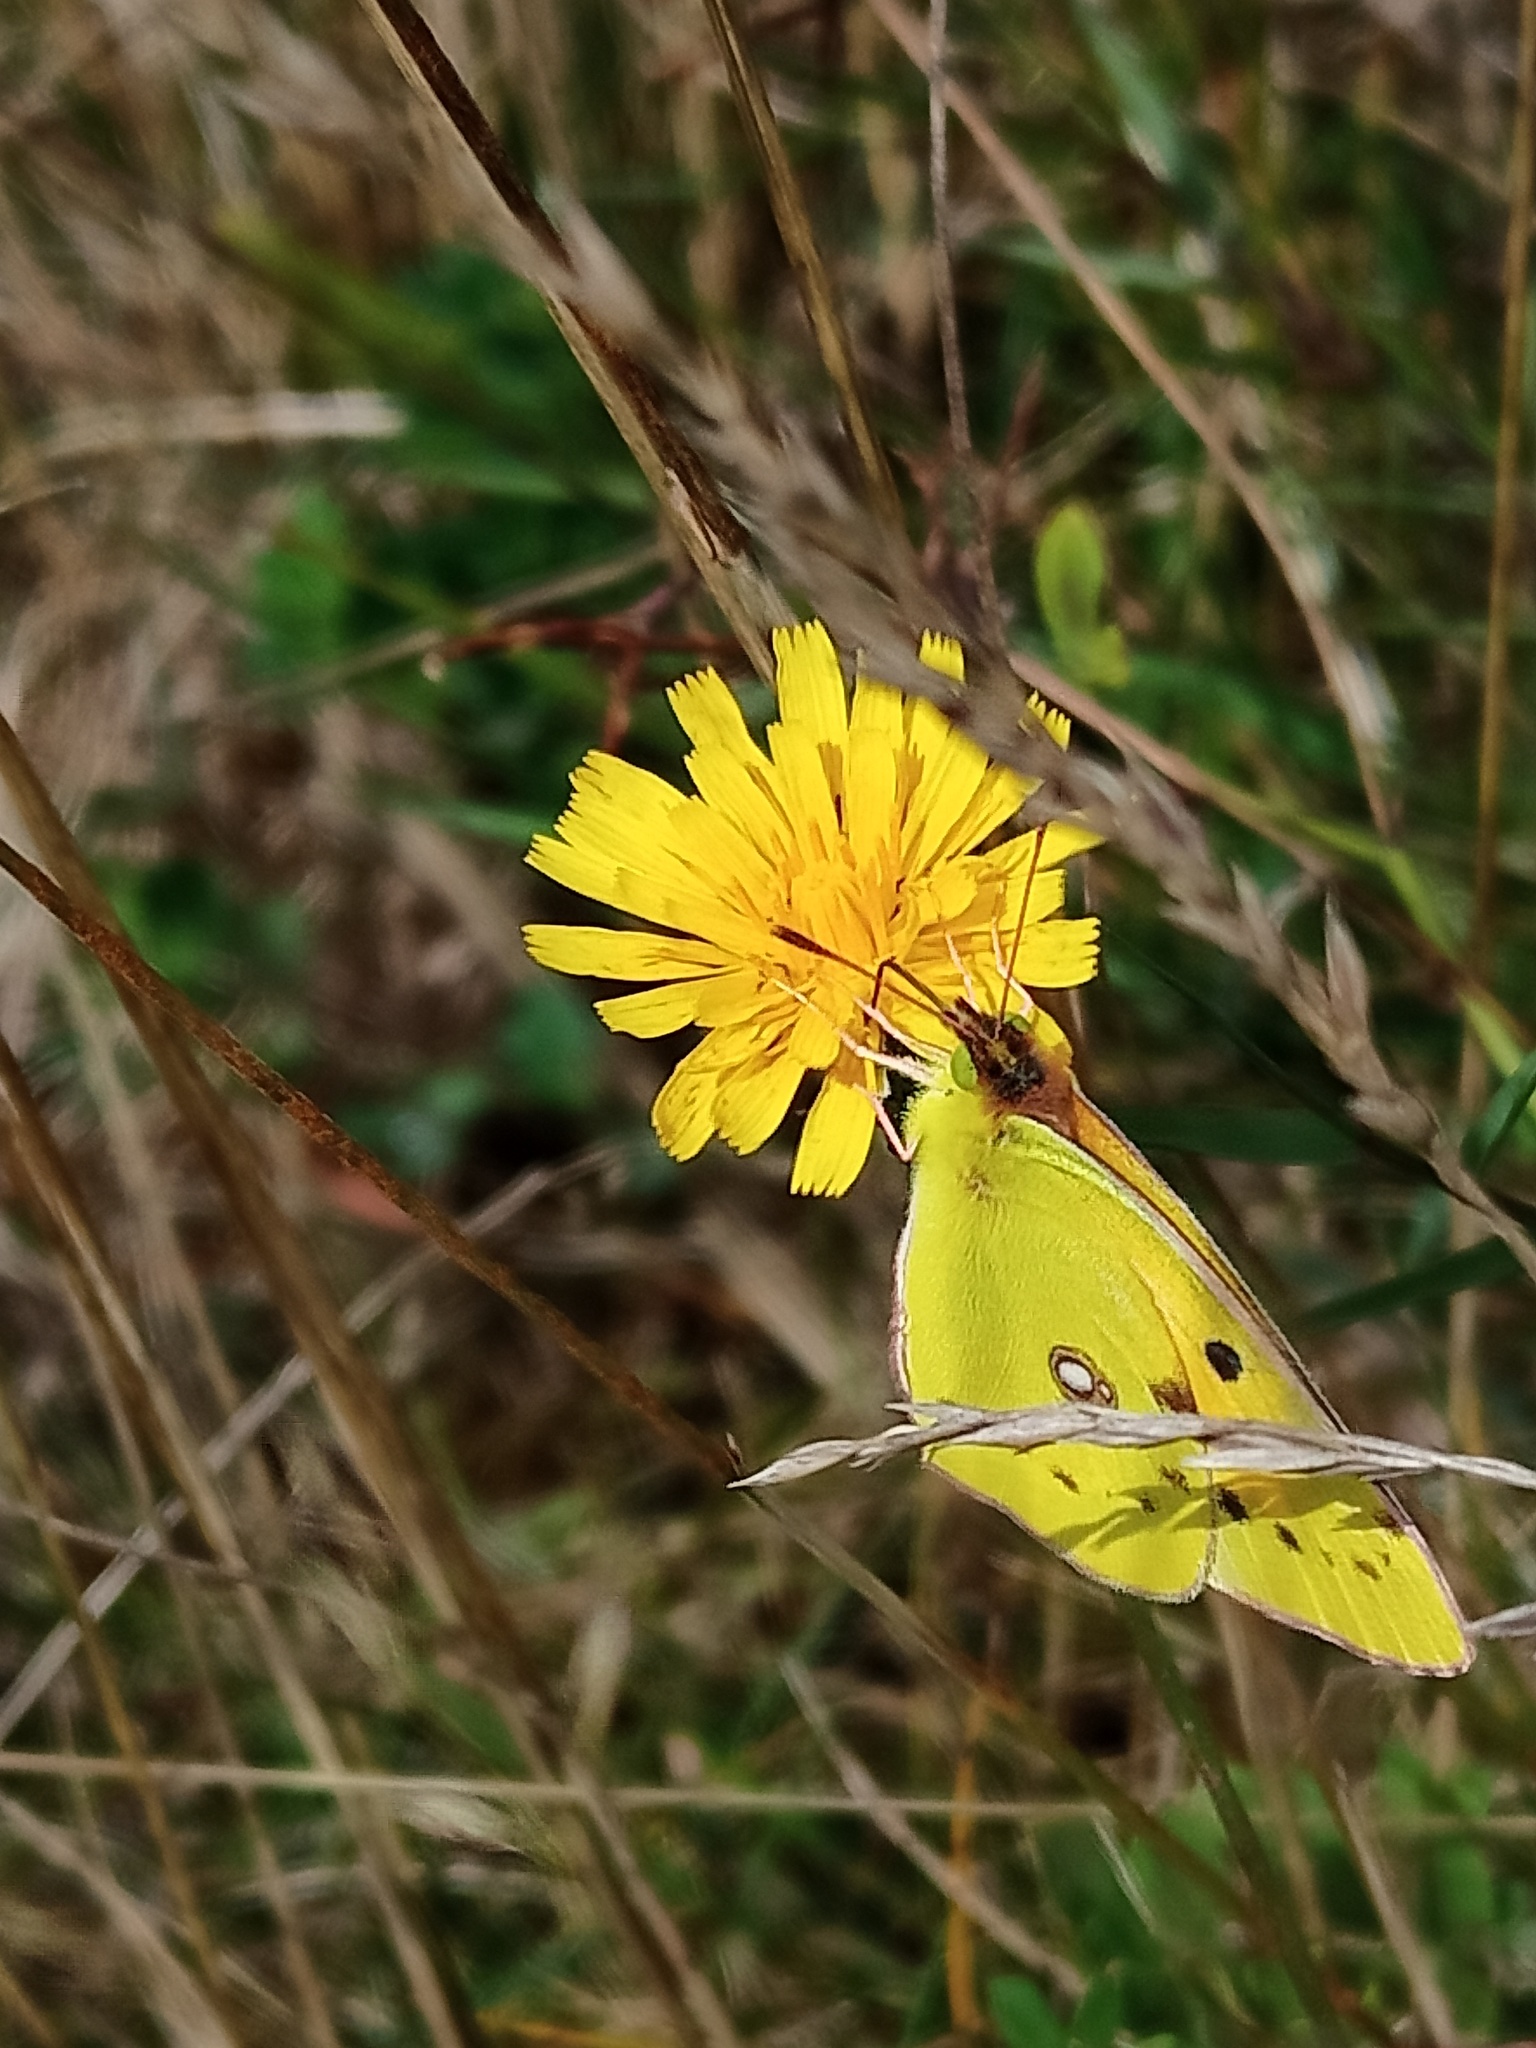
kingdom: Animalia
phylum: Arthropoda
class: Insecta
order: Lepidoptera
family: Pieridae
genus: Colias
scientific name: Colias croceus
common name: Clouded yellow
